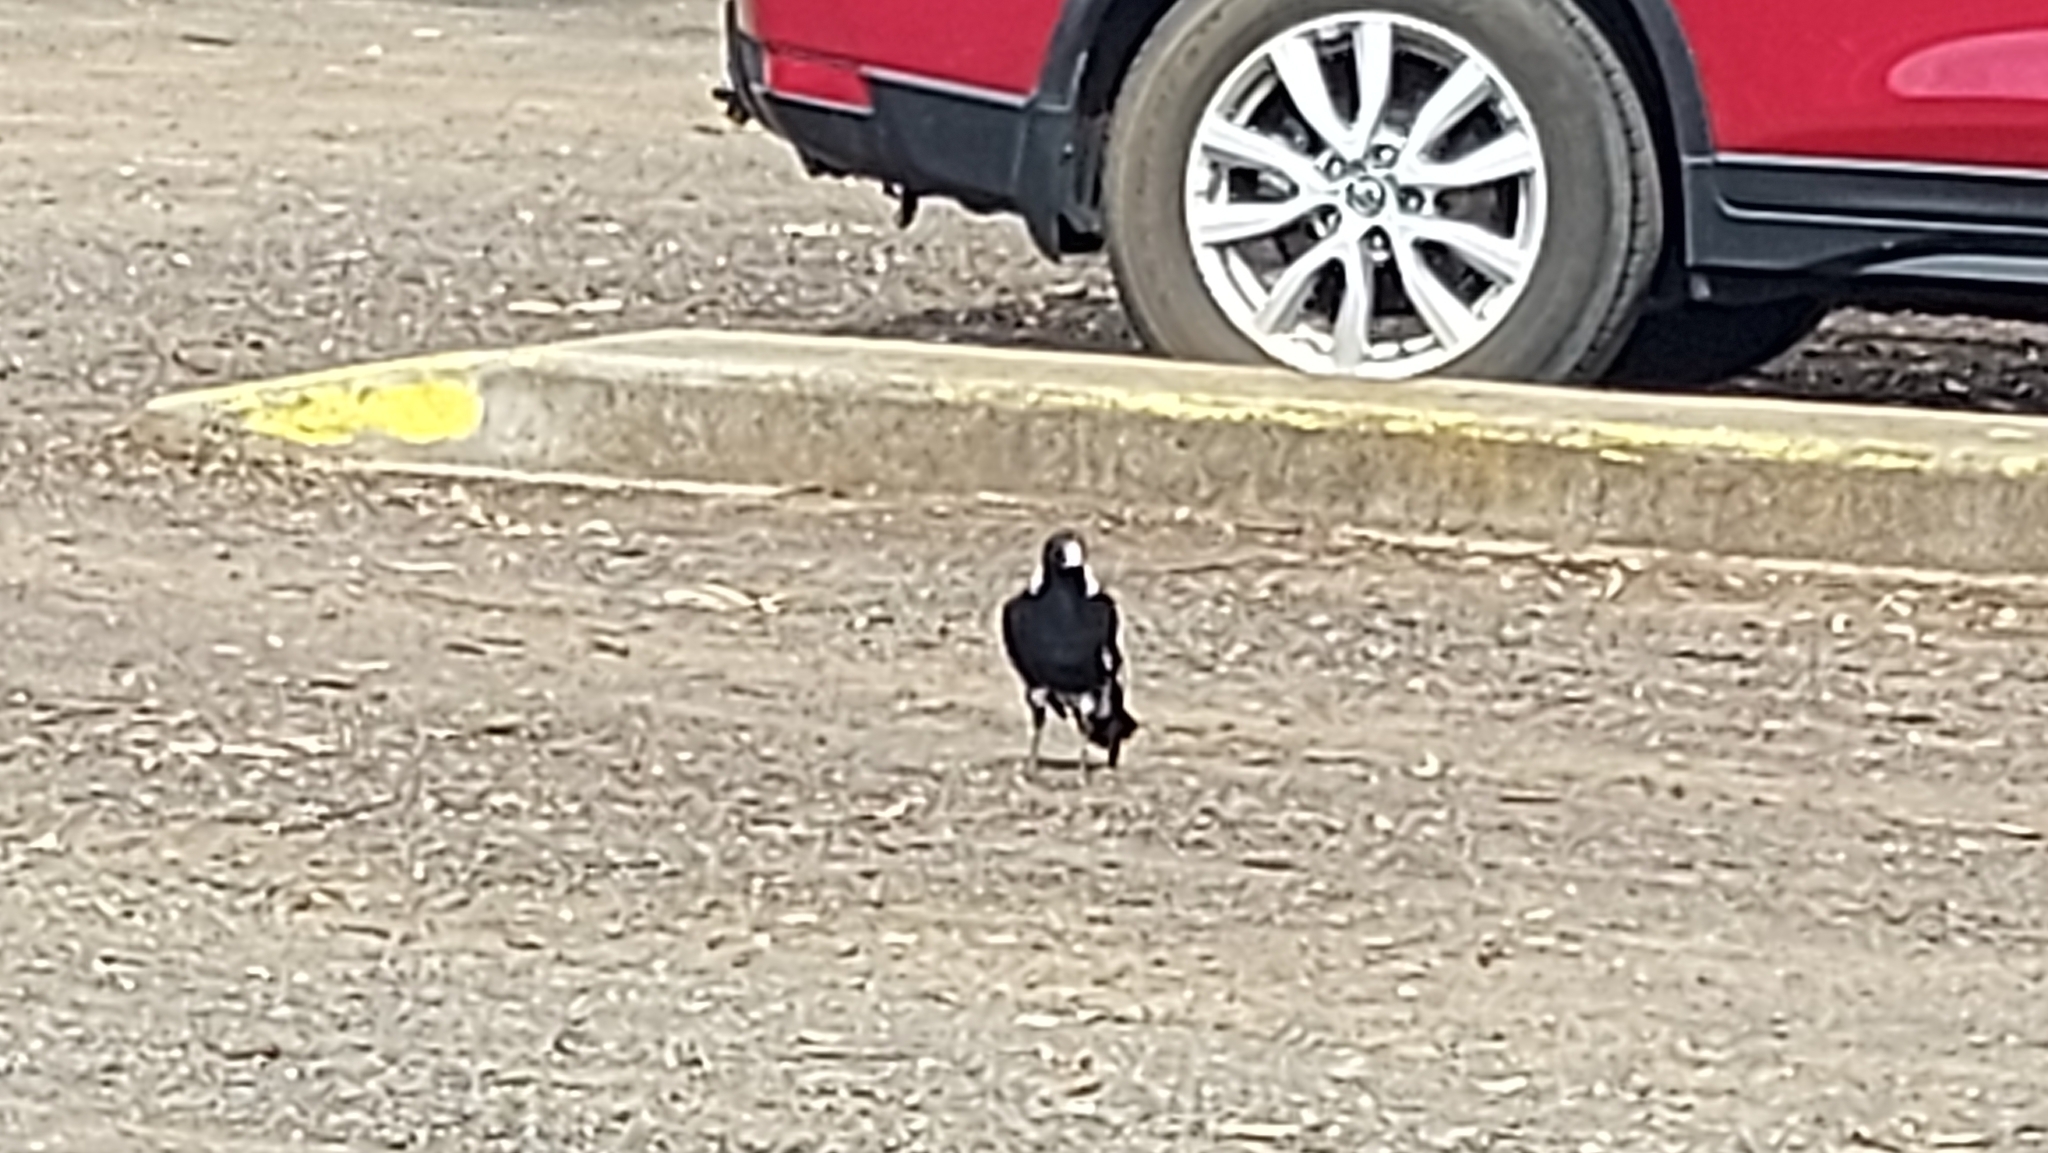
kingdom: Animalia
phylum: Chordata
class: Aves
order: Passeriformes
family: Cracticidae
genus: Gymnorhina
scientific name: Gymnorhina tibicen
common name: Australian magpie
